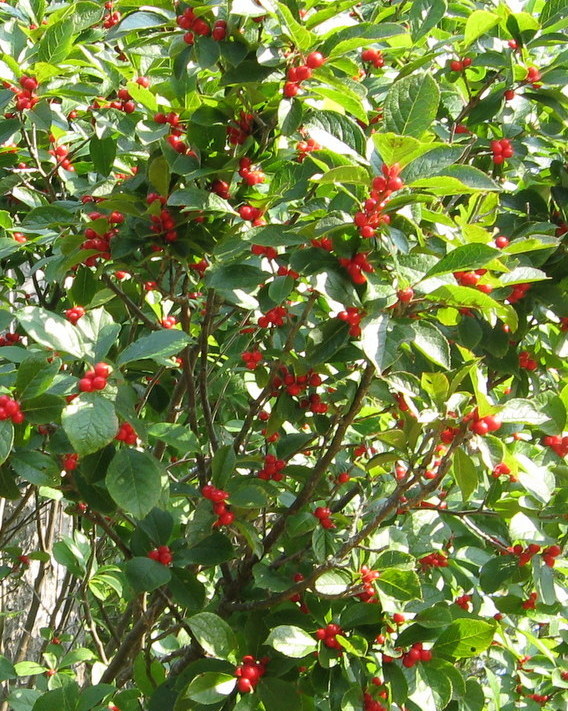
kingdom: Plantae
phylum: Tracheophyta
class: Magnoliopsida
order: Aquifoliales
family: Aquifoliaceae
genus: Ilex
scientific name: Ilex verticillata
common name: Virginia winterberry
